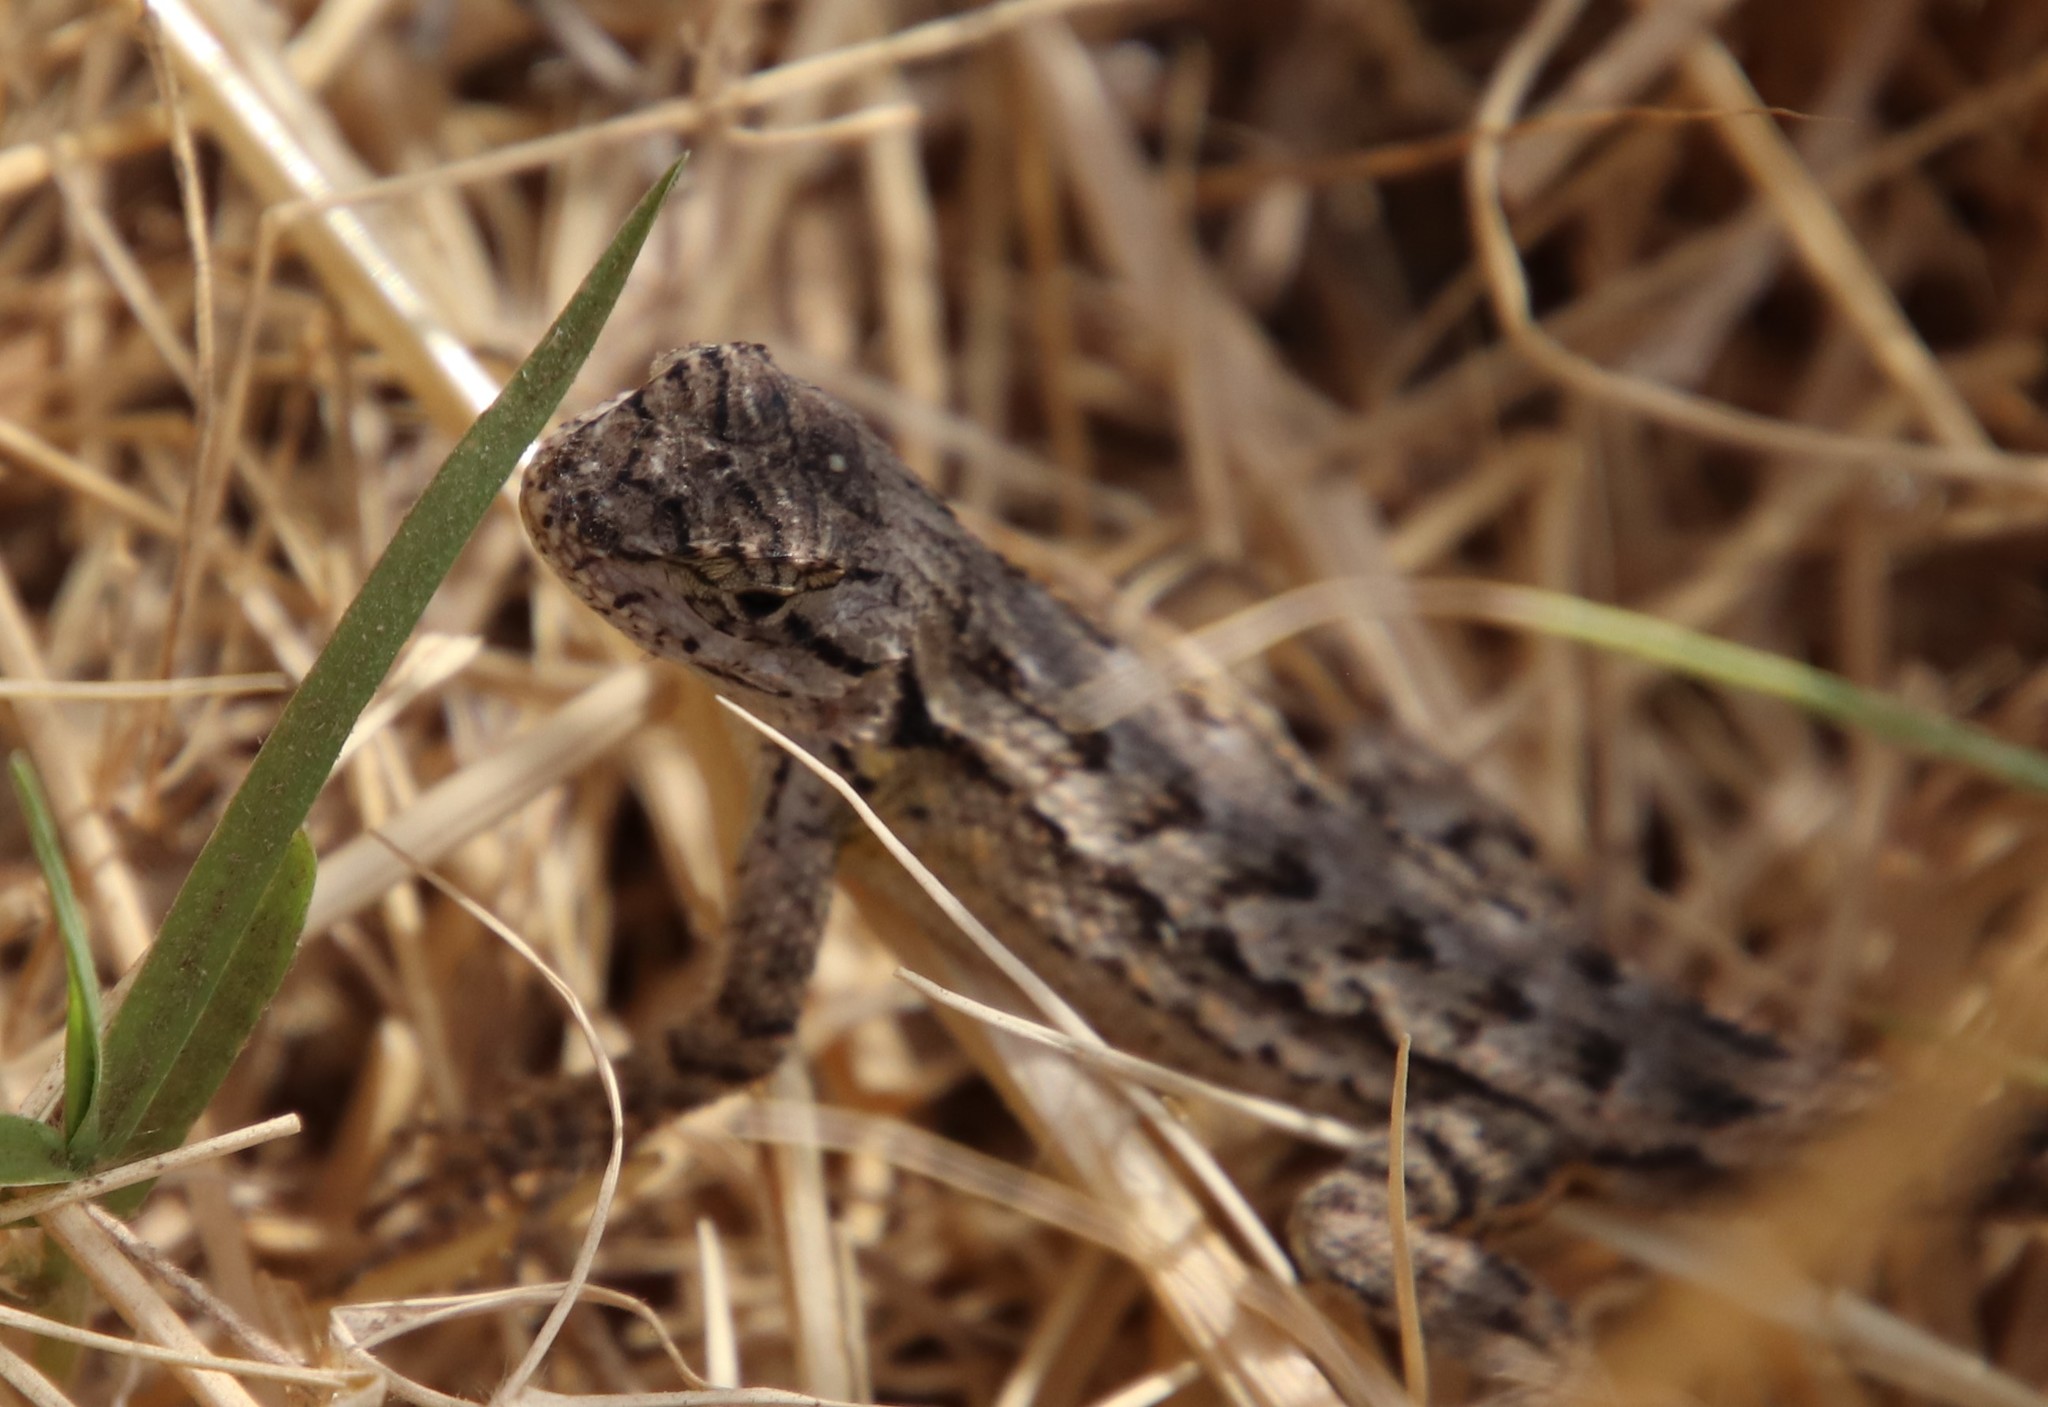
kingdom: Animalia
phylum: Chordata
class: Squamata
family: Phrynosomatidae
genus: Sceloporus
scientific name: Sceloporus occidentalis
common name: Western fence lizard
